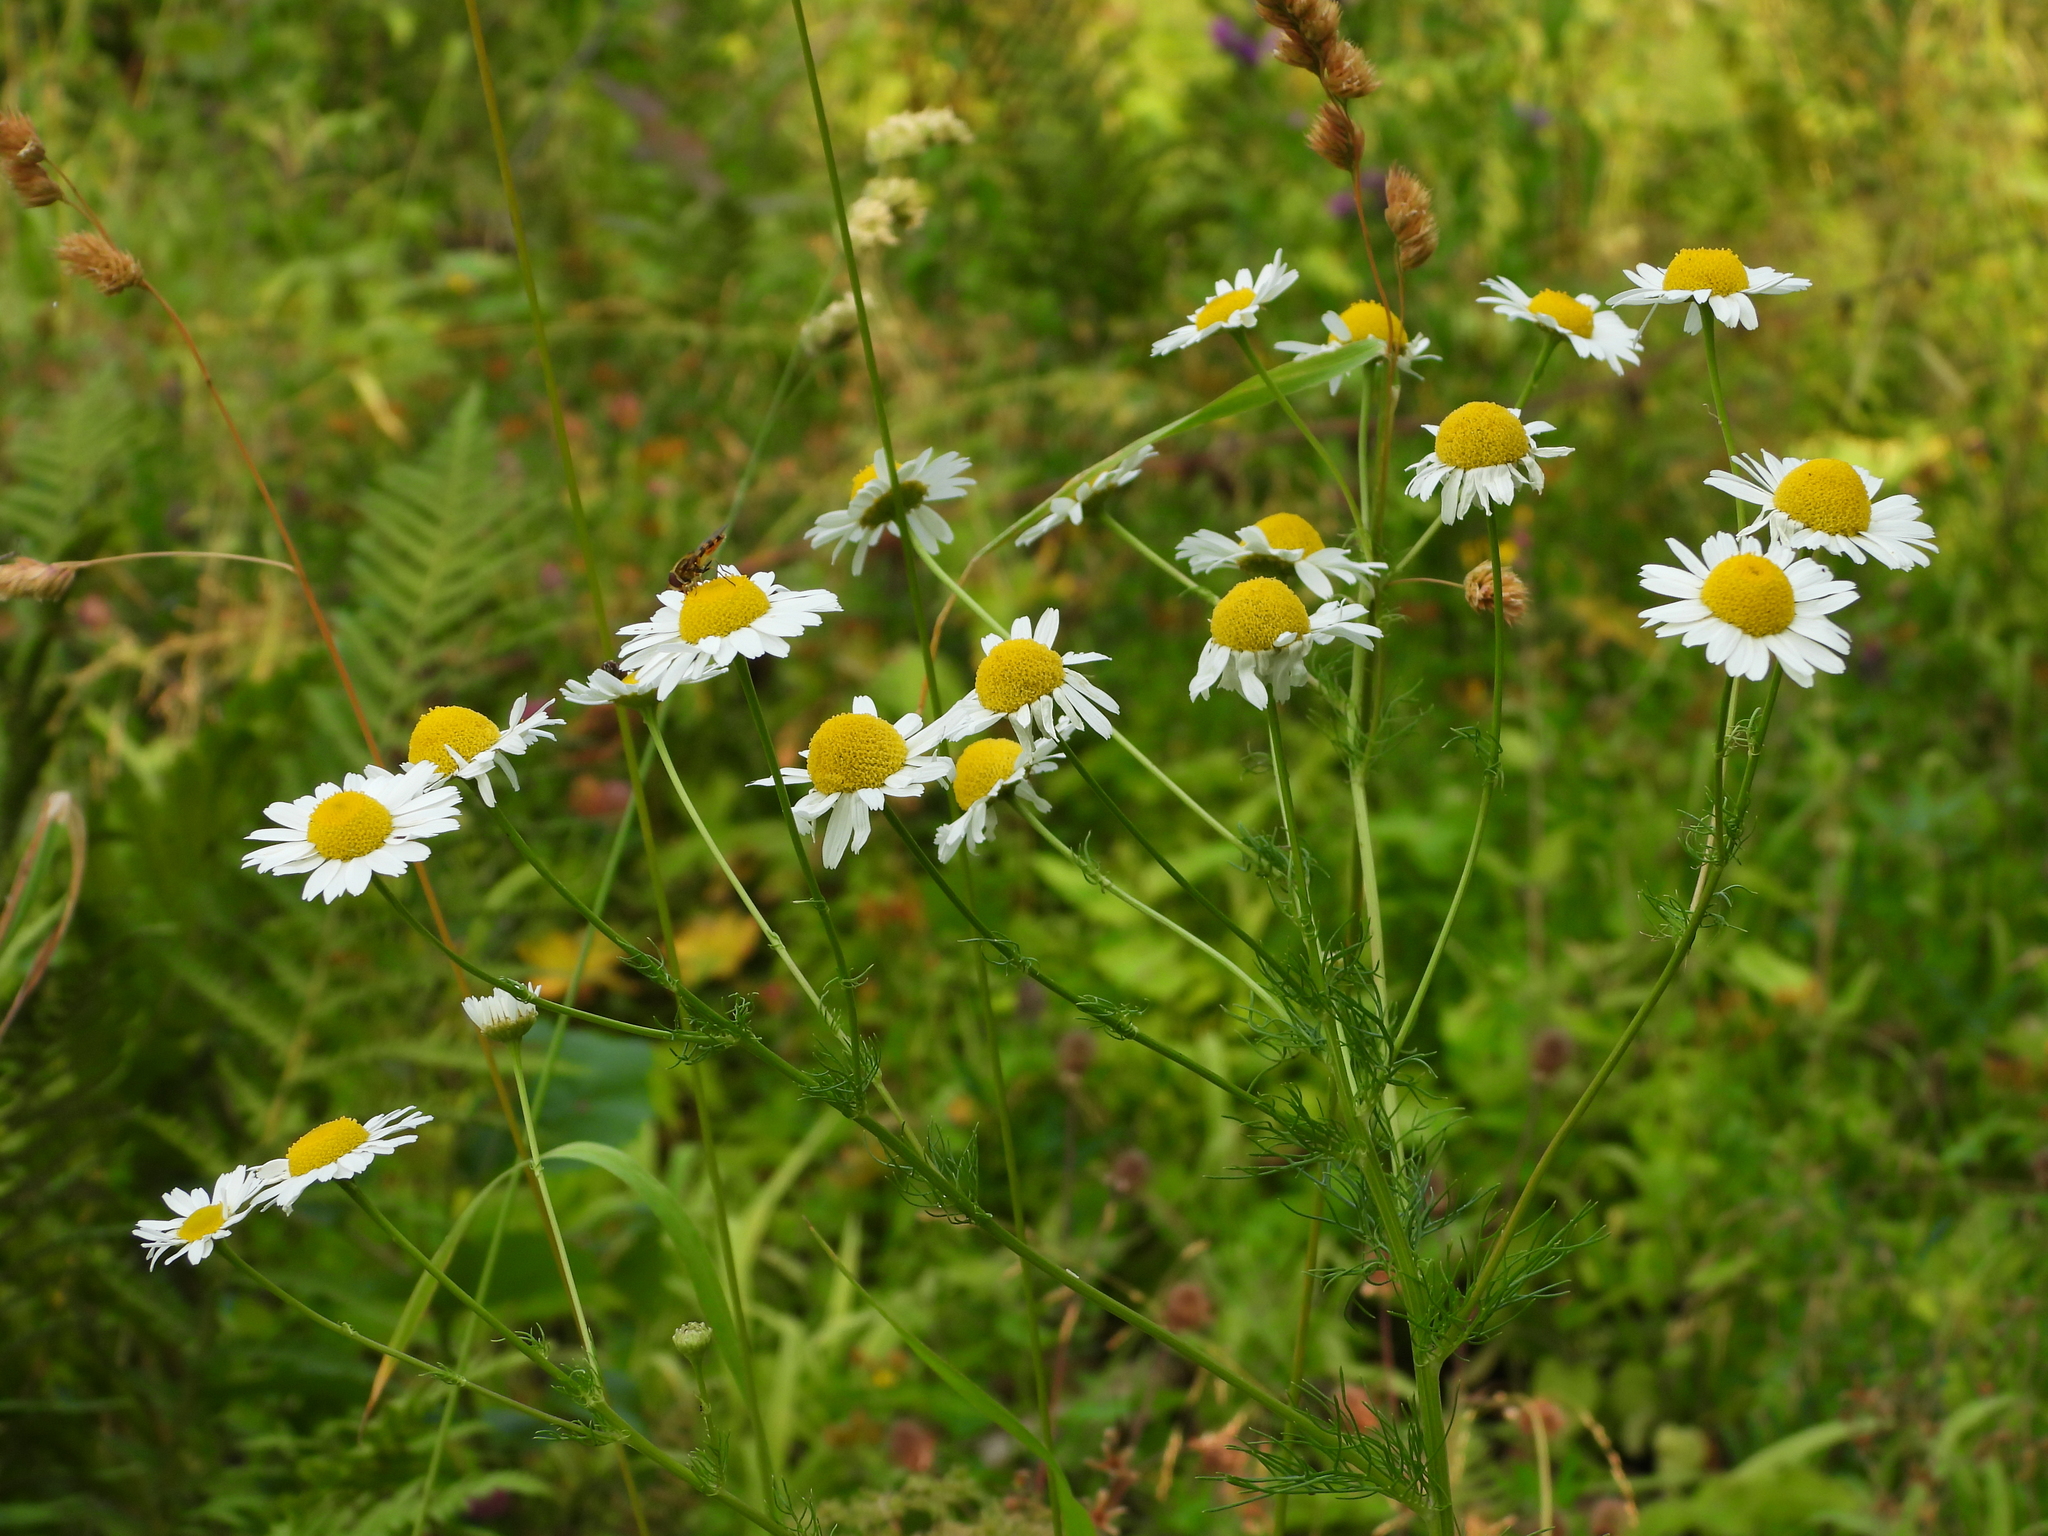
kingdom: Plantae
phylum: Tracheophyta
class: Magnoliopsida
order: Asterales
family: Asteraceae
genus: Tripleurospermum
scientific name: Tripleurospermum inodorum
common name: Scentless mayweed
